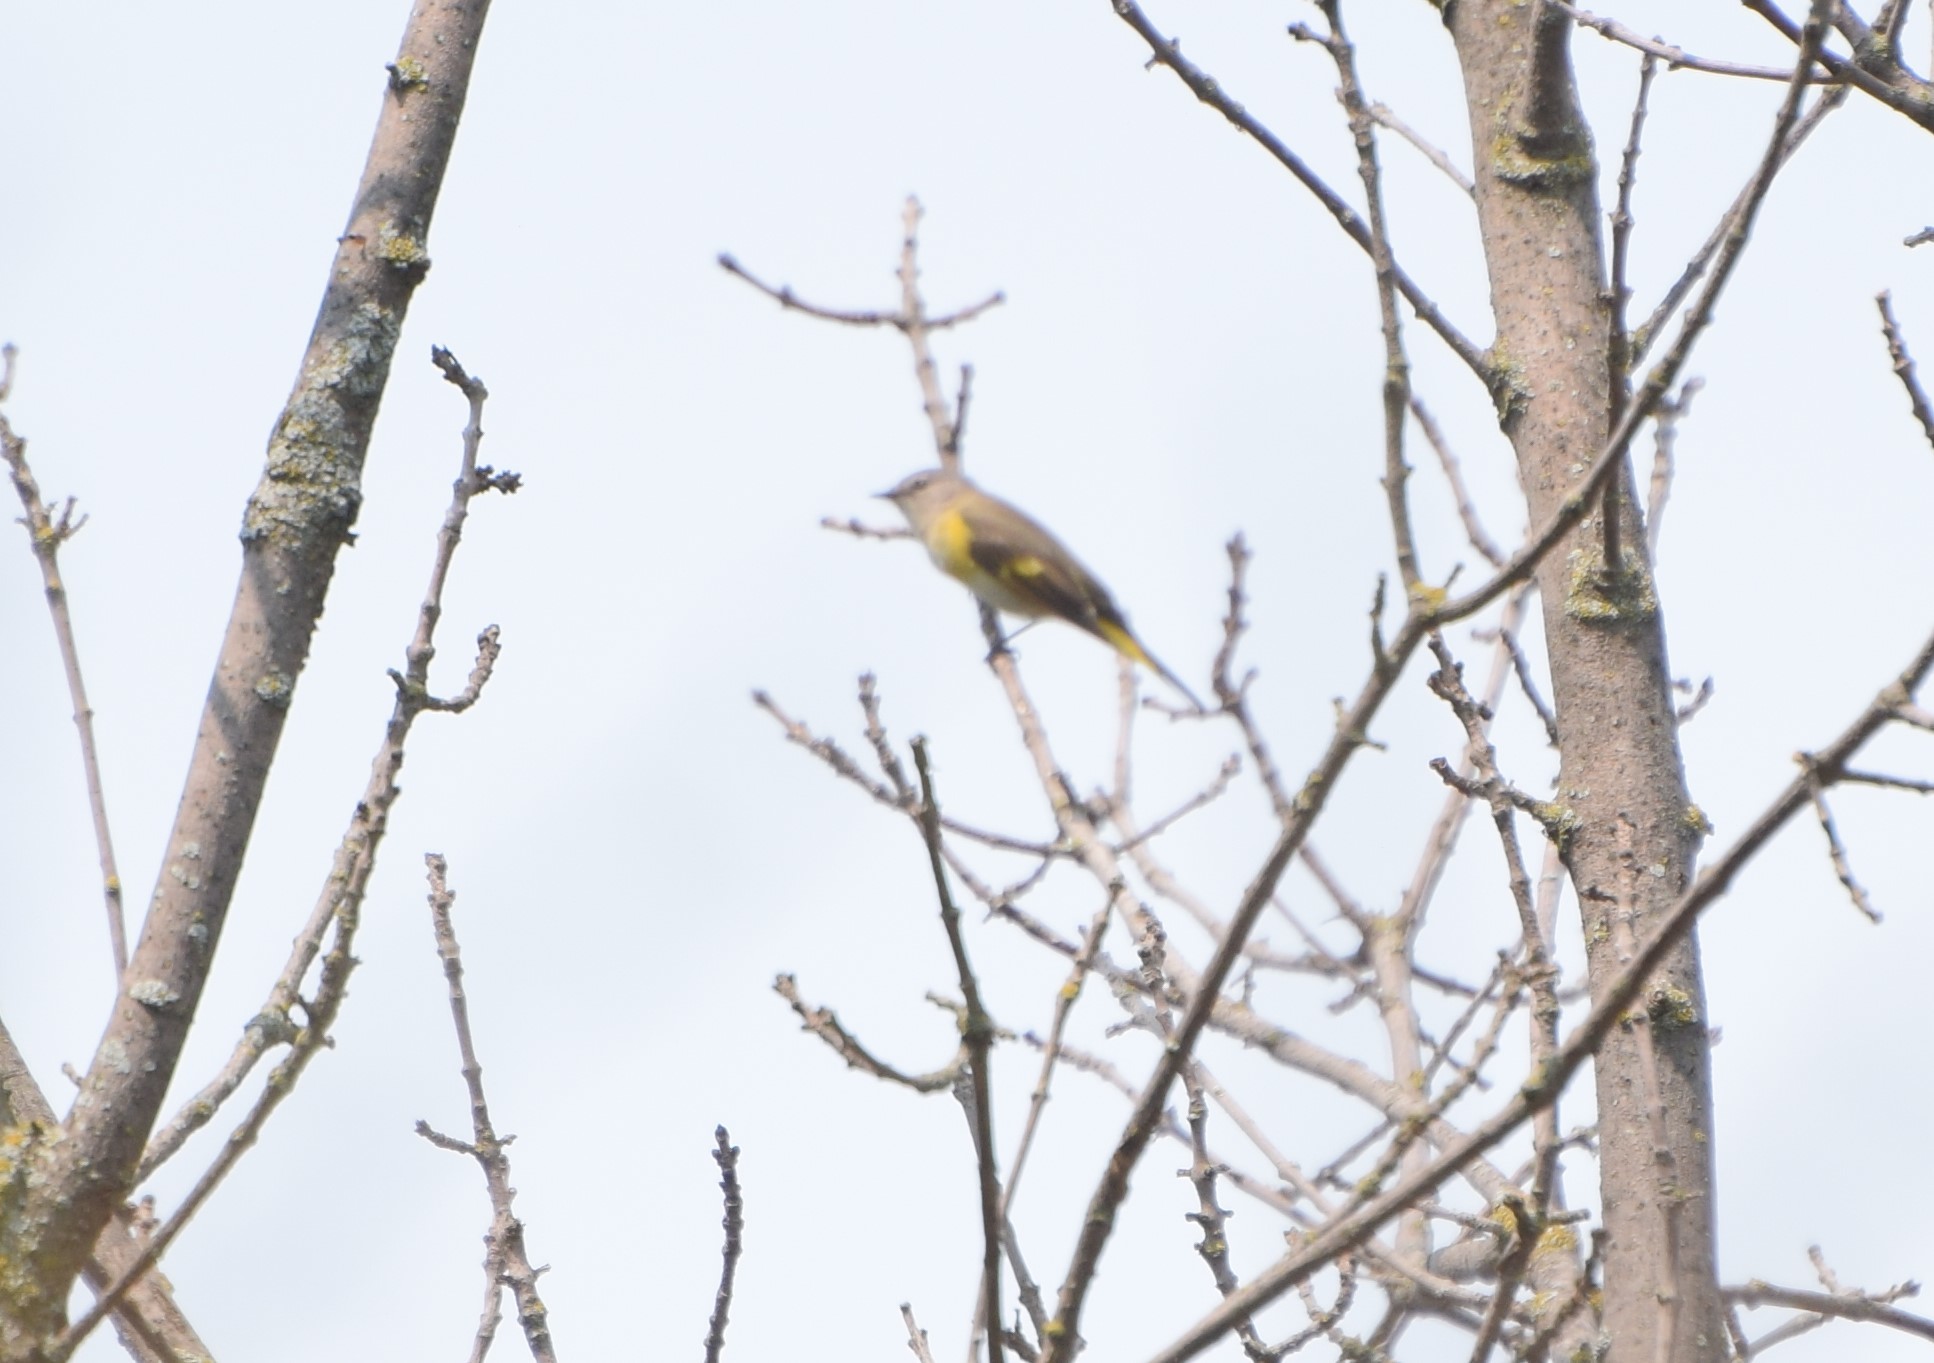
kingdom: Animalia
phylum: Chordata
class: Aves
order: Passeriformes
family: Parulidae
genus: Setophaga
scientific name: Setophaga ruticilla
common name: American redstart
